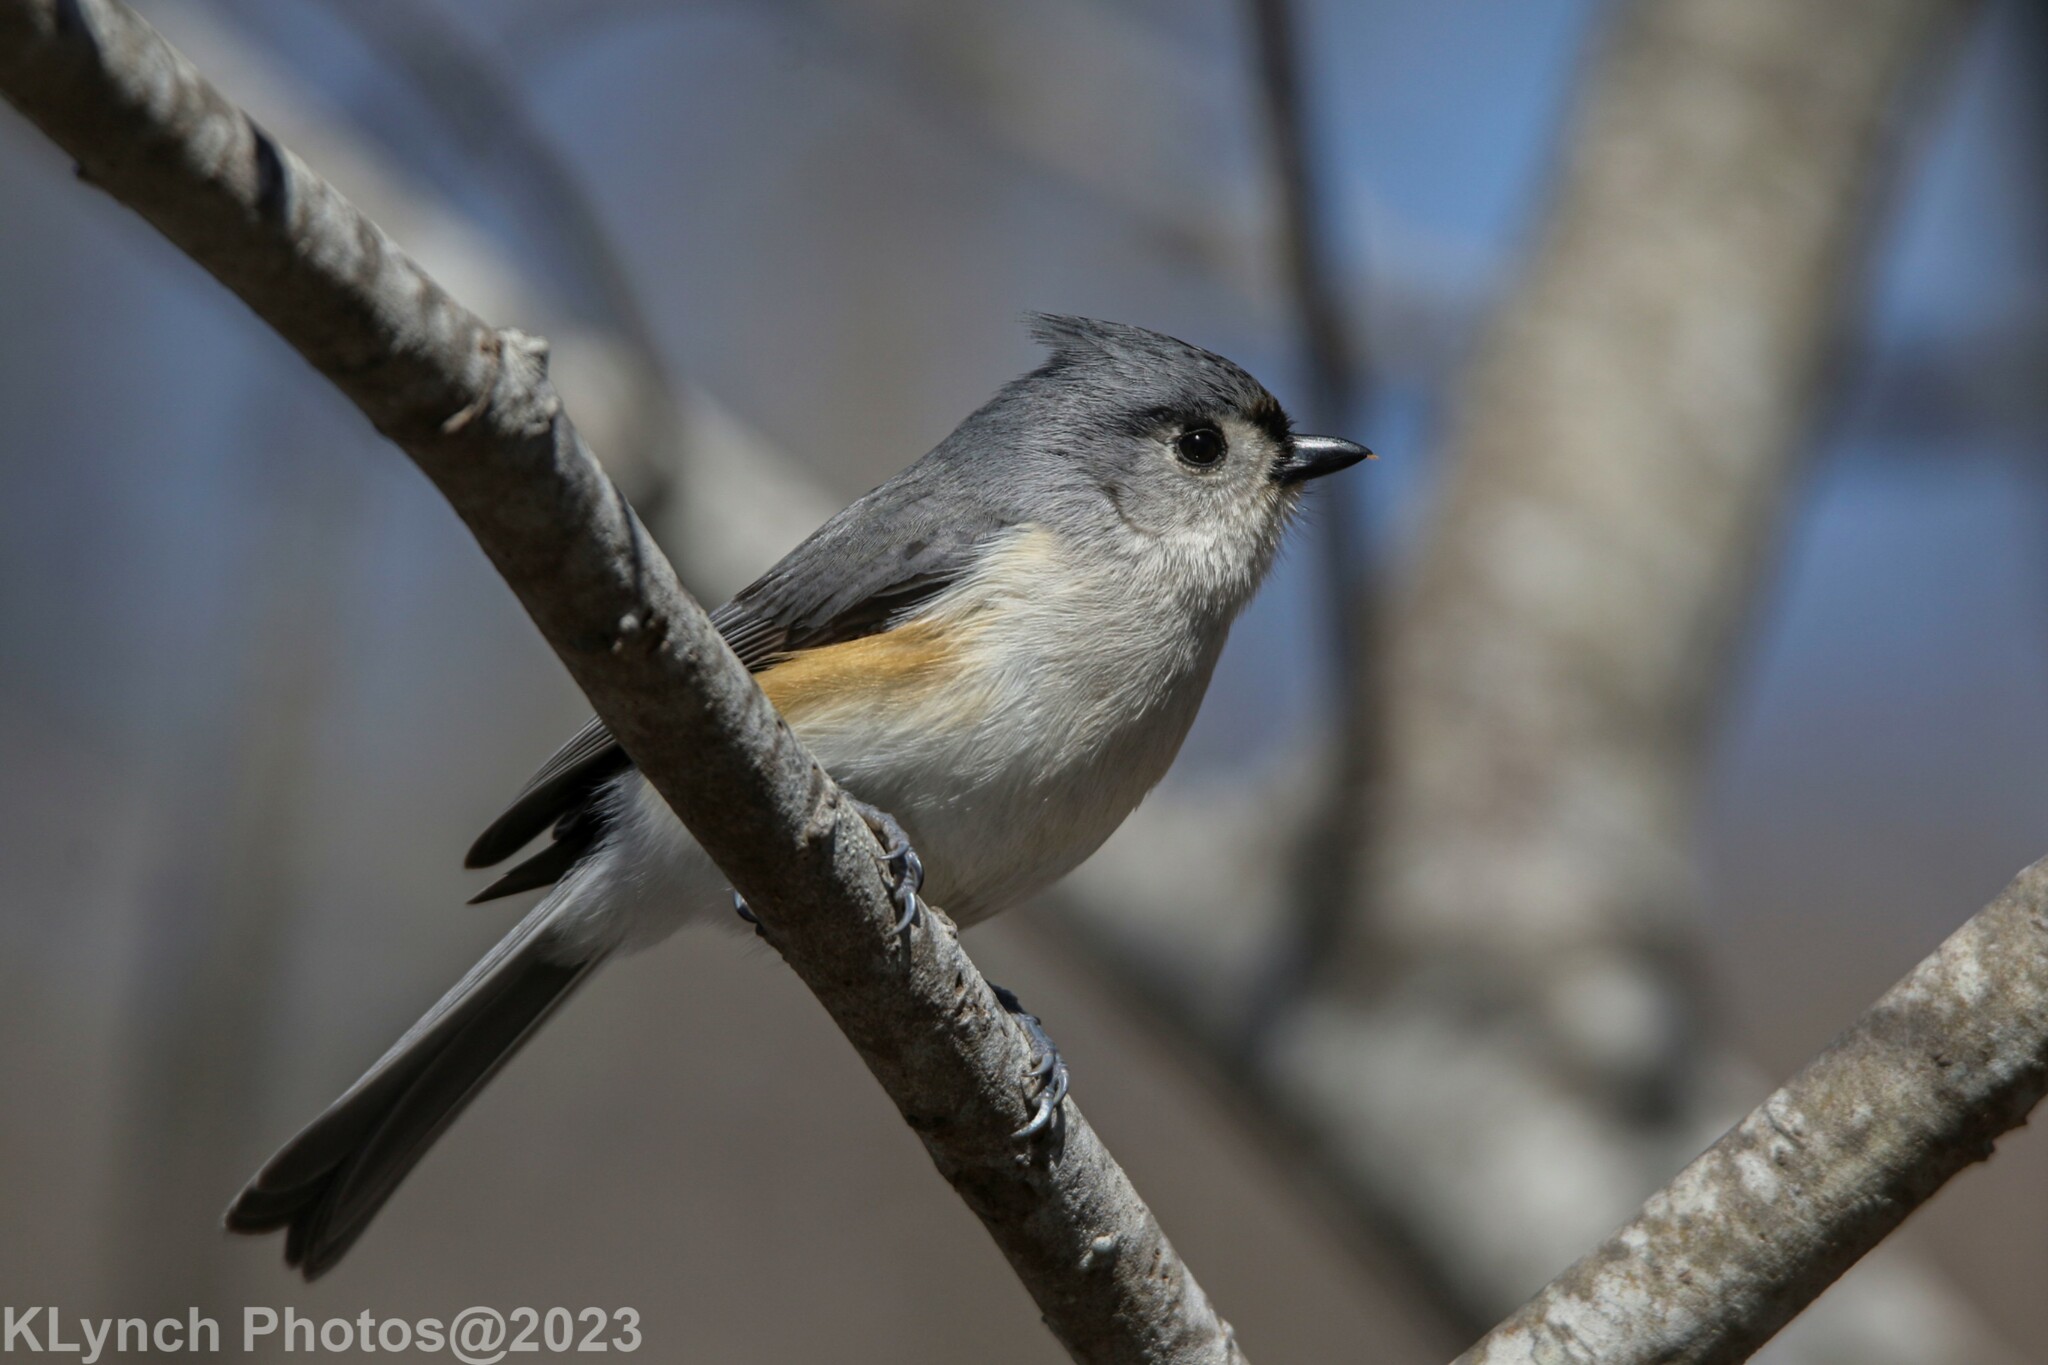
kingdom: Animalia
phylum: Chordata
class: Aves
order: Passeriformes
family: Paridae
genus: Baeolophus
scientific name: Baeolophus bicolor
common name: Tufted titmouse
